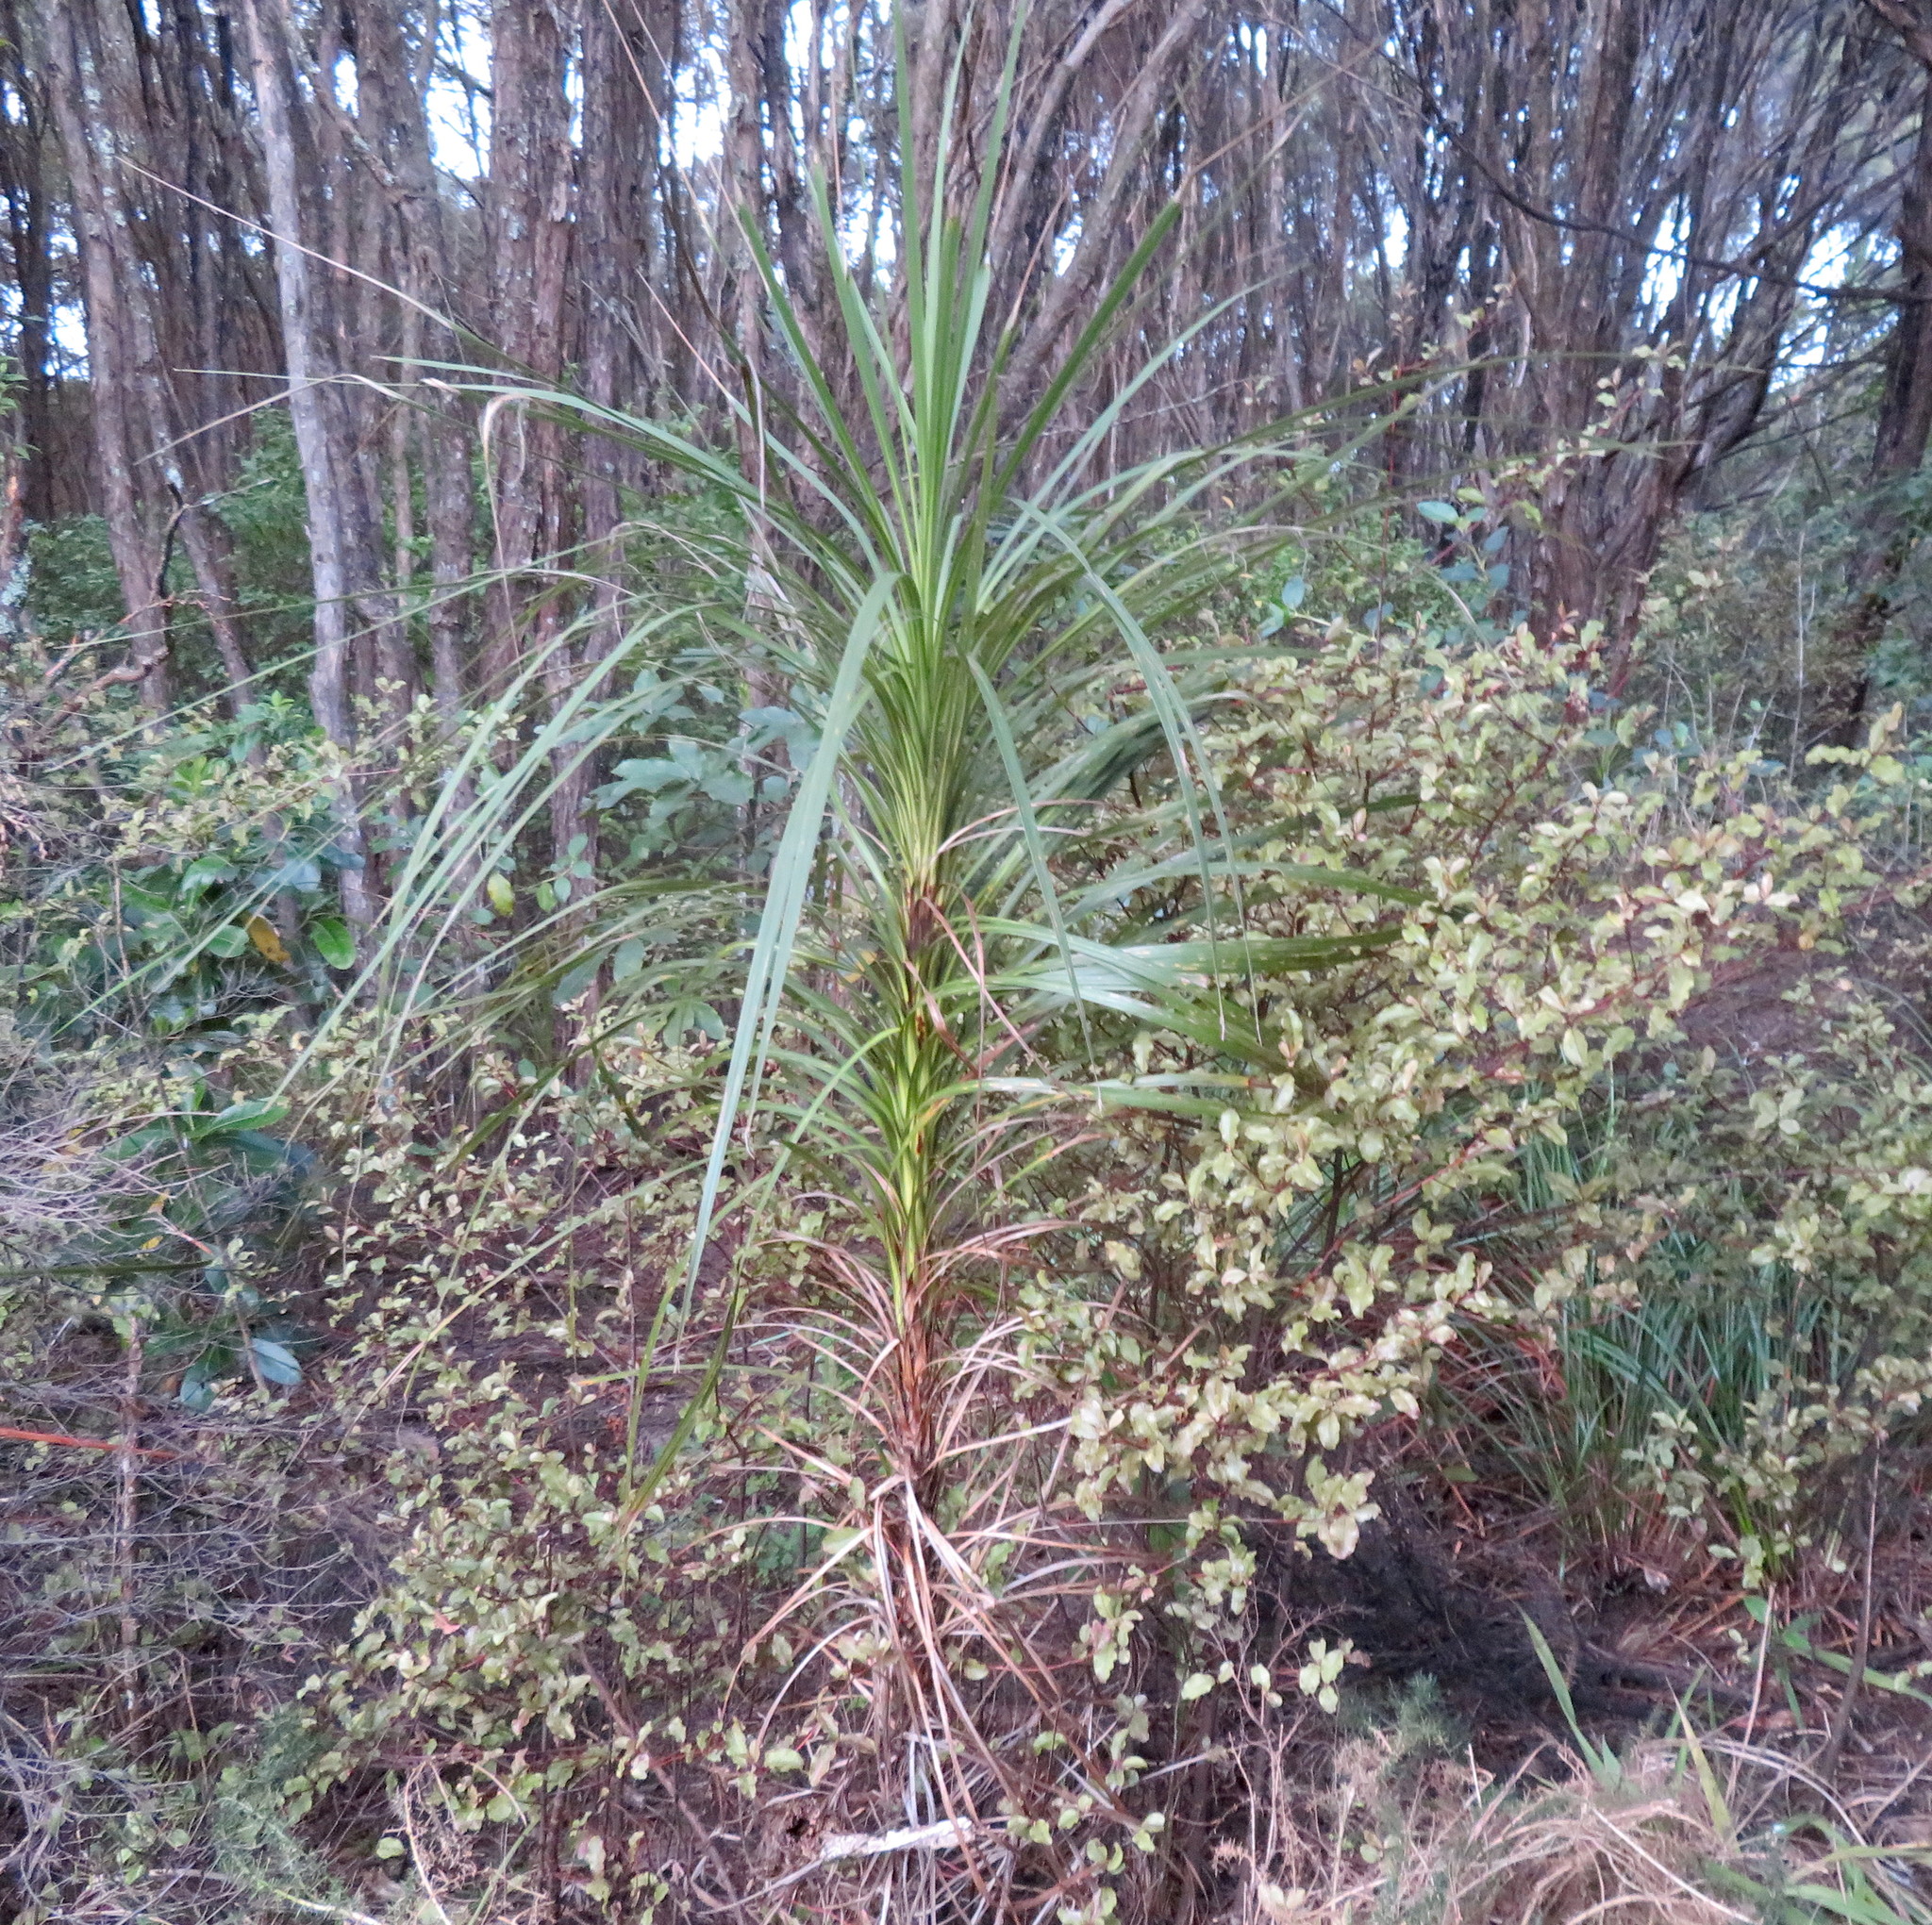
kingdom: Plantae
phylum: Tracheophyta
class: Magnoliopsida
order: Ericales
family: Primulaceae
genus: Myrsine
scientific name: Myrsine australis
